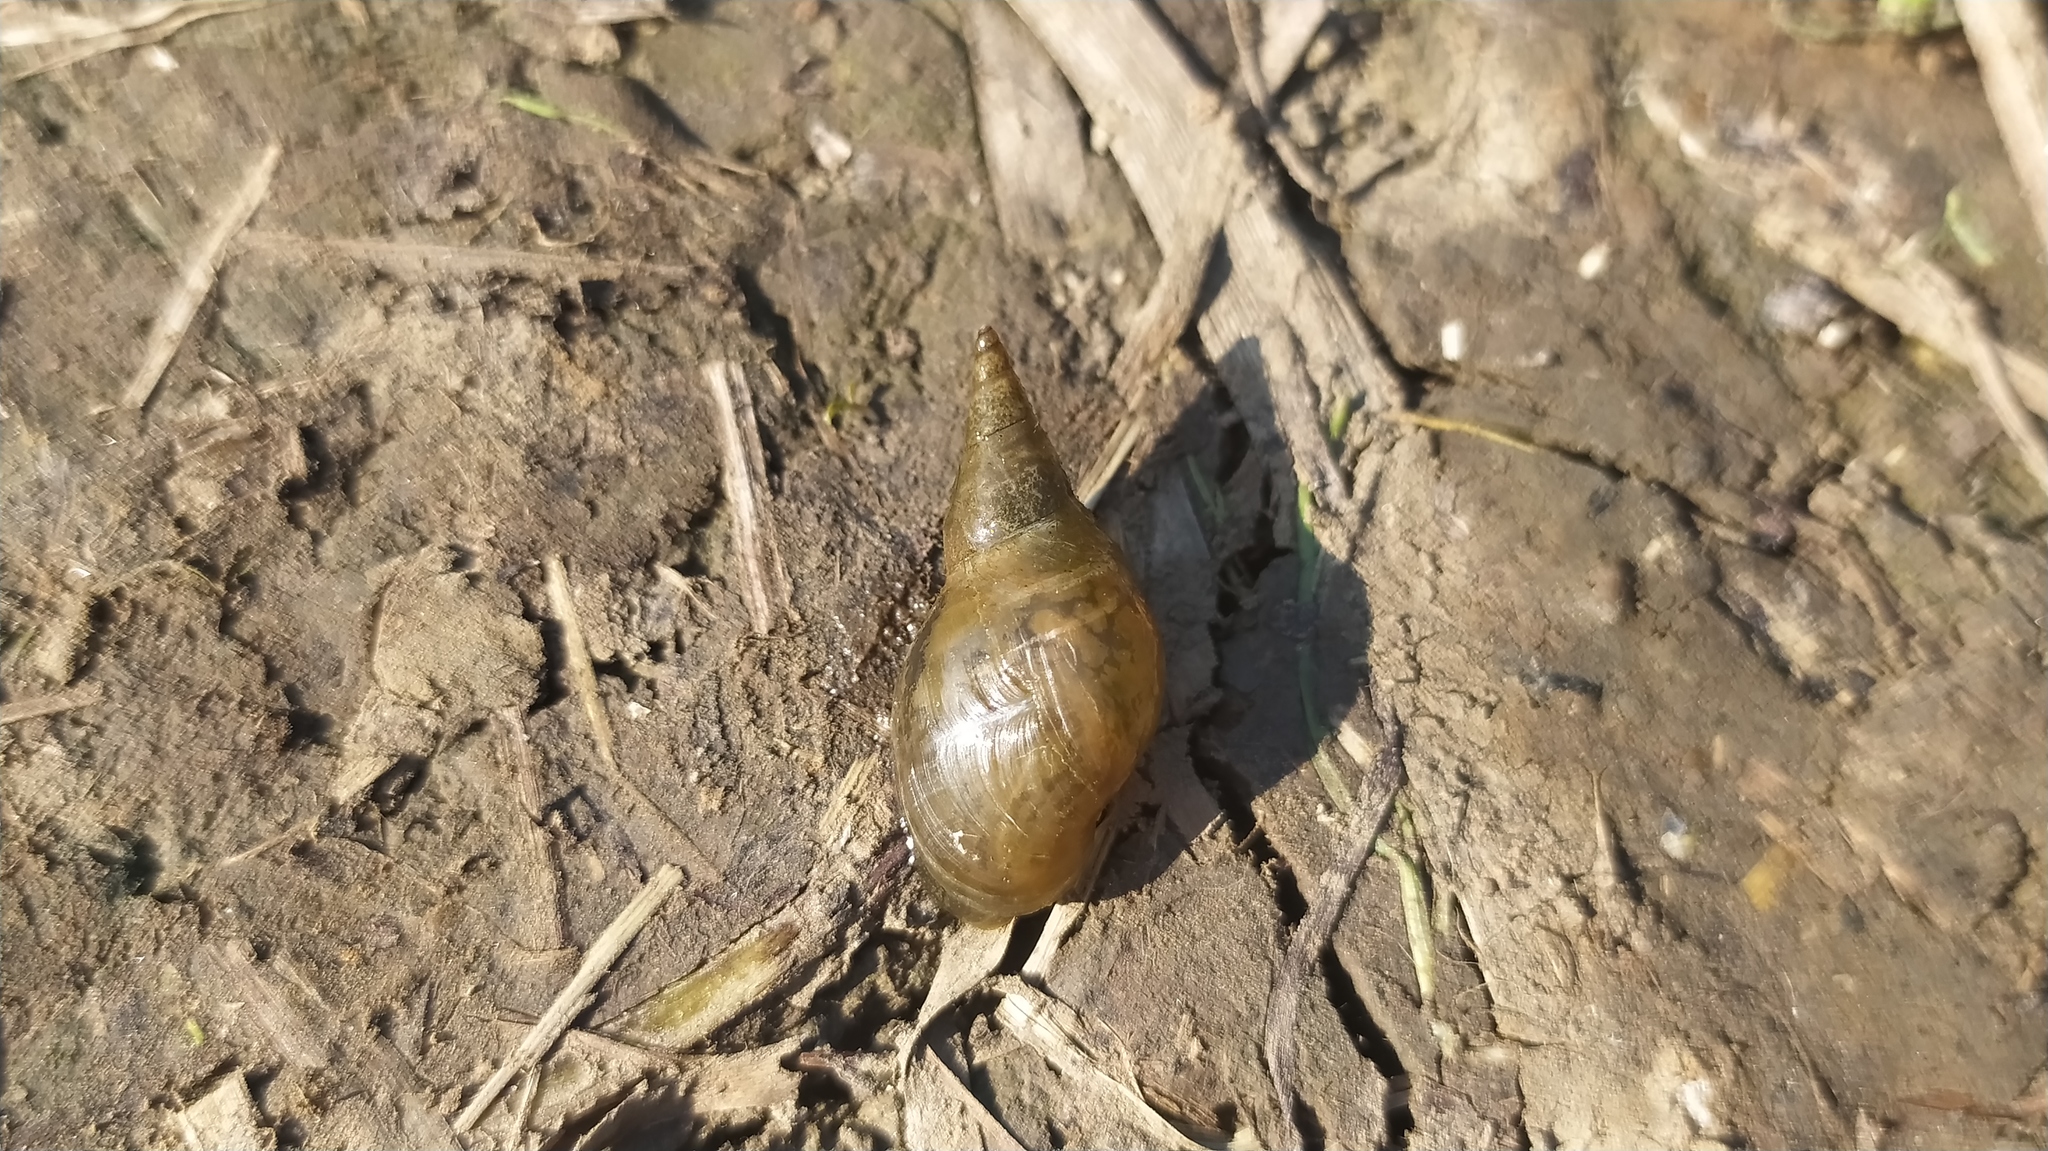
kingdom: Animalia
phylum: Mollusca
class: Gastropoda
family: Lymnaeidae
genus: Lymnaea
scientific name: Lymnaea stagnalis
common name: Great pond snail
